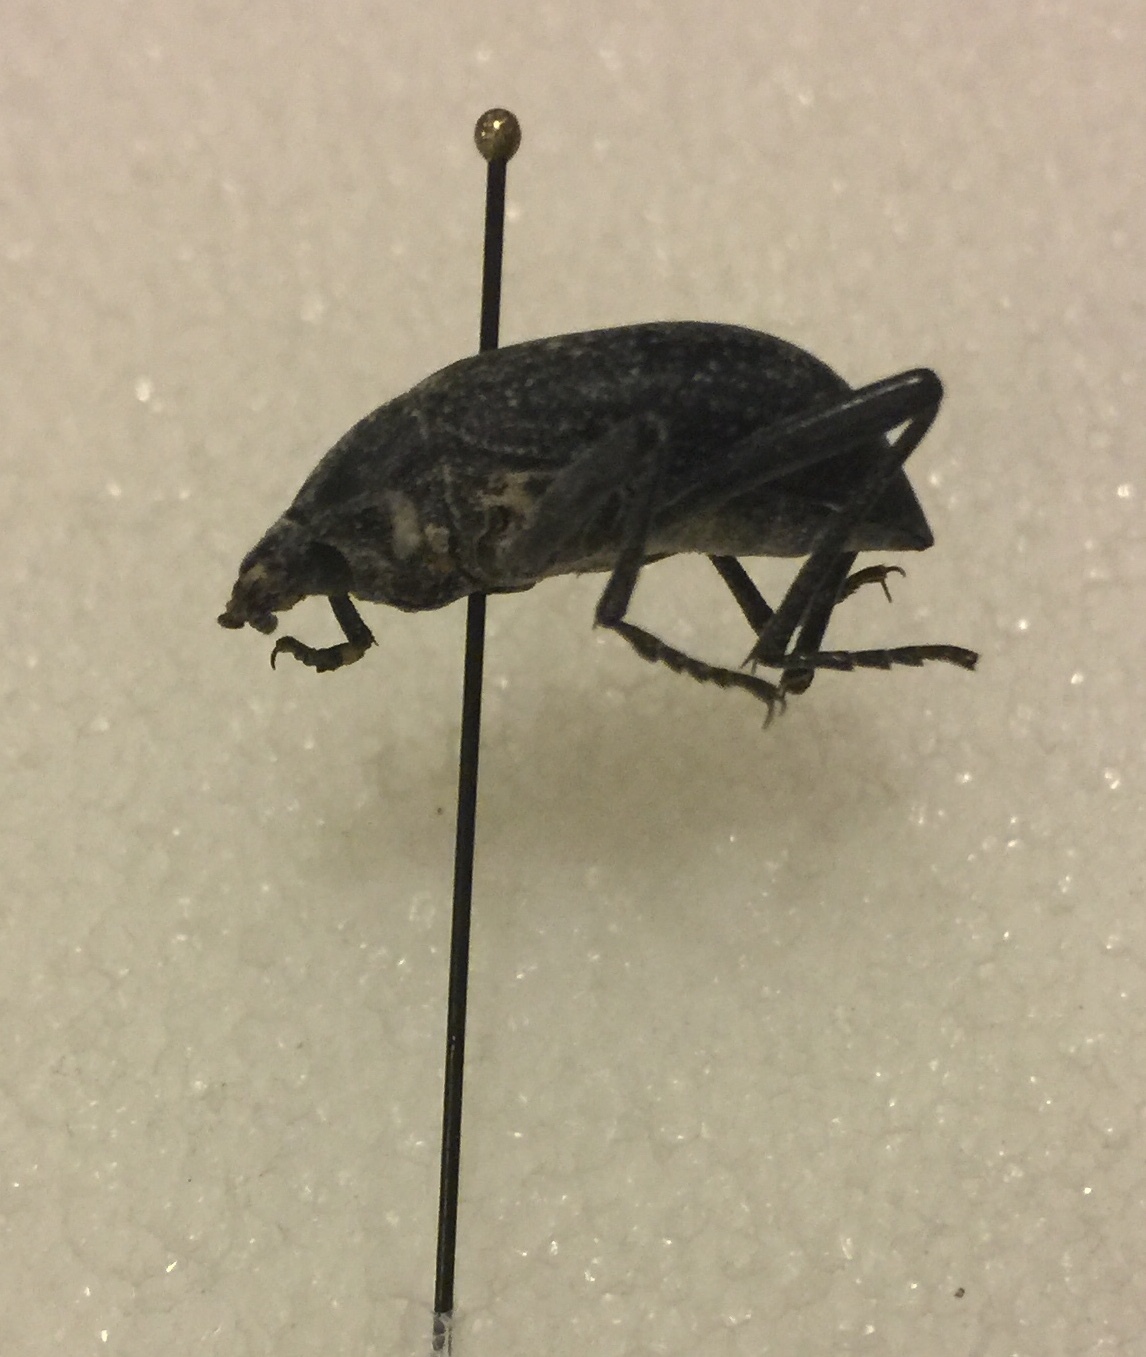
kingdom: Animalia
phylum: Arthropoda
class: Insecta
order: Coleoptera
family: Tenebrionidae
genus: Eleodes
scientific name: Eleodes goryi
